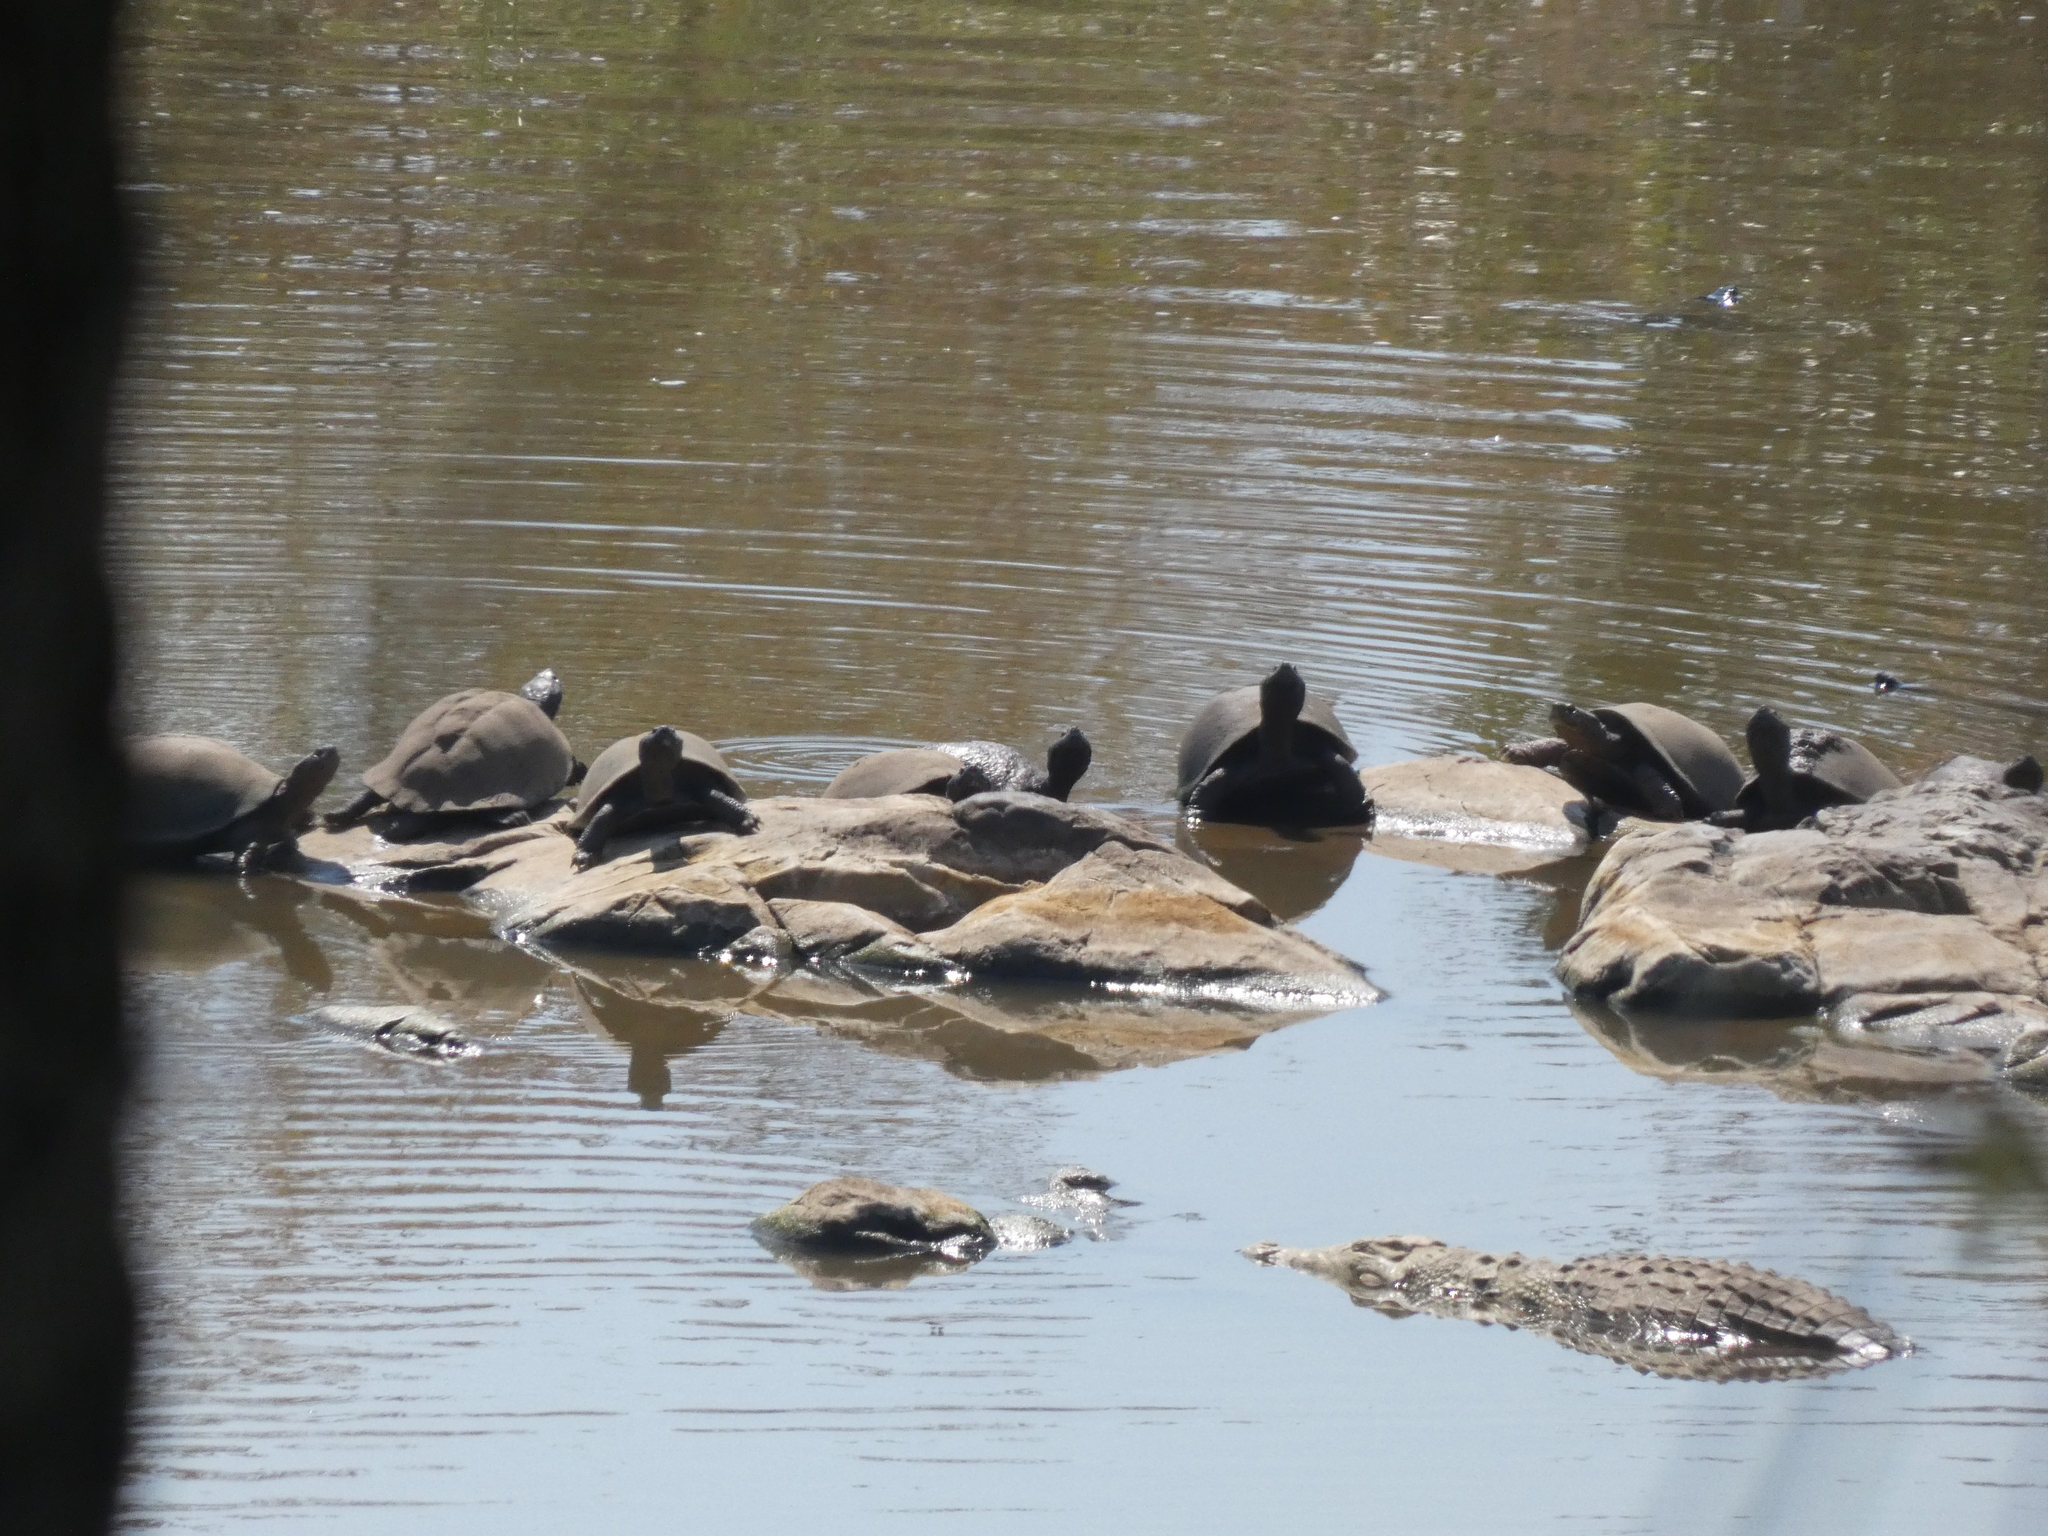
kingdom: Animalia
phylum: Chordata
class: Testudines
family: Pelomedusidae
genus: Pelusios
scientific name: Pelusios sinuatus
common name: Serrated hinged terrapin
